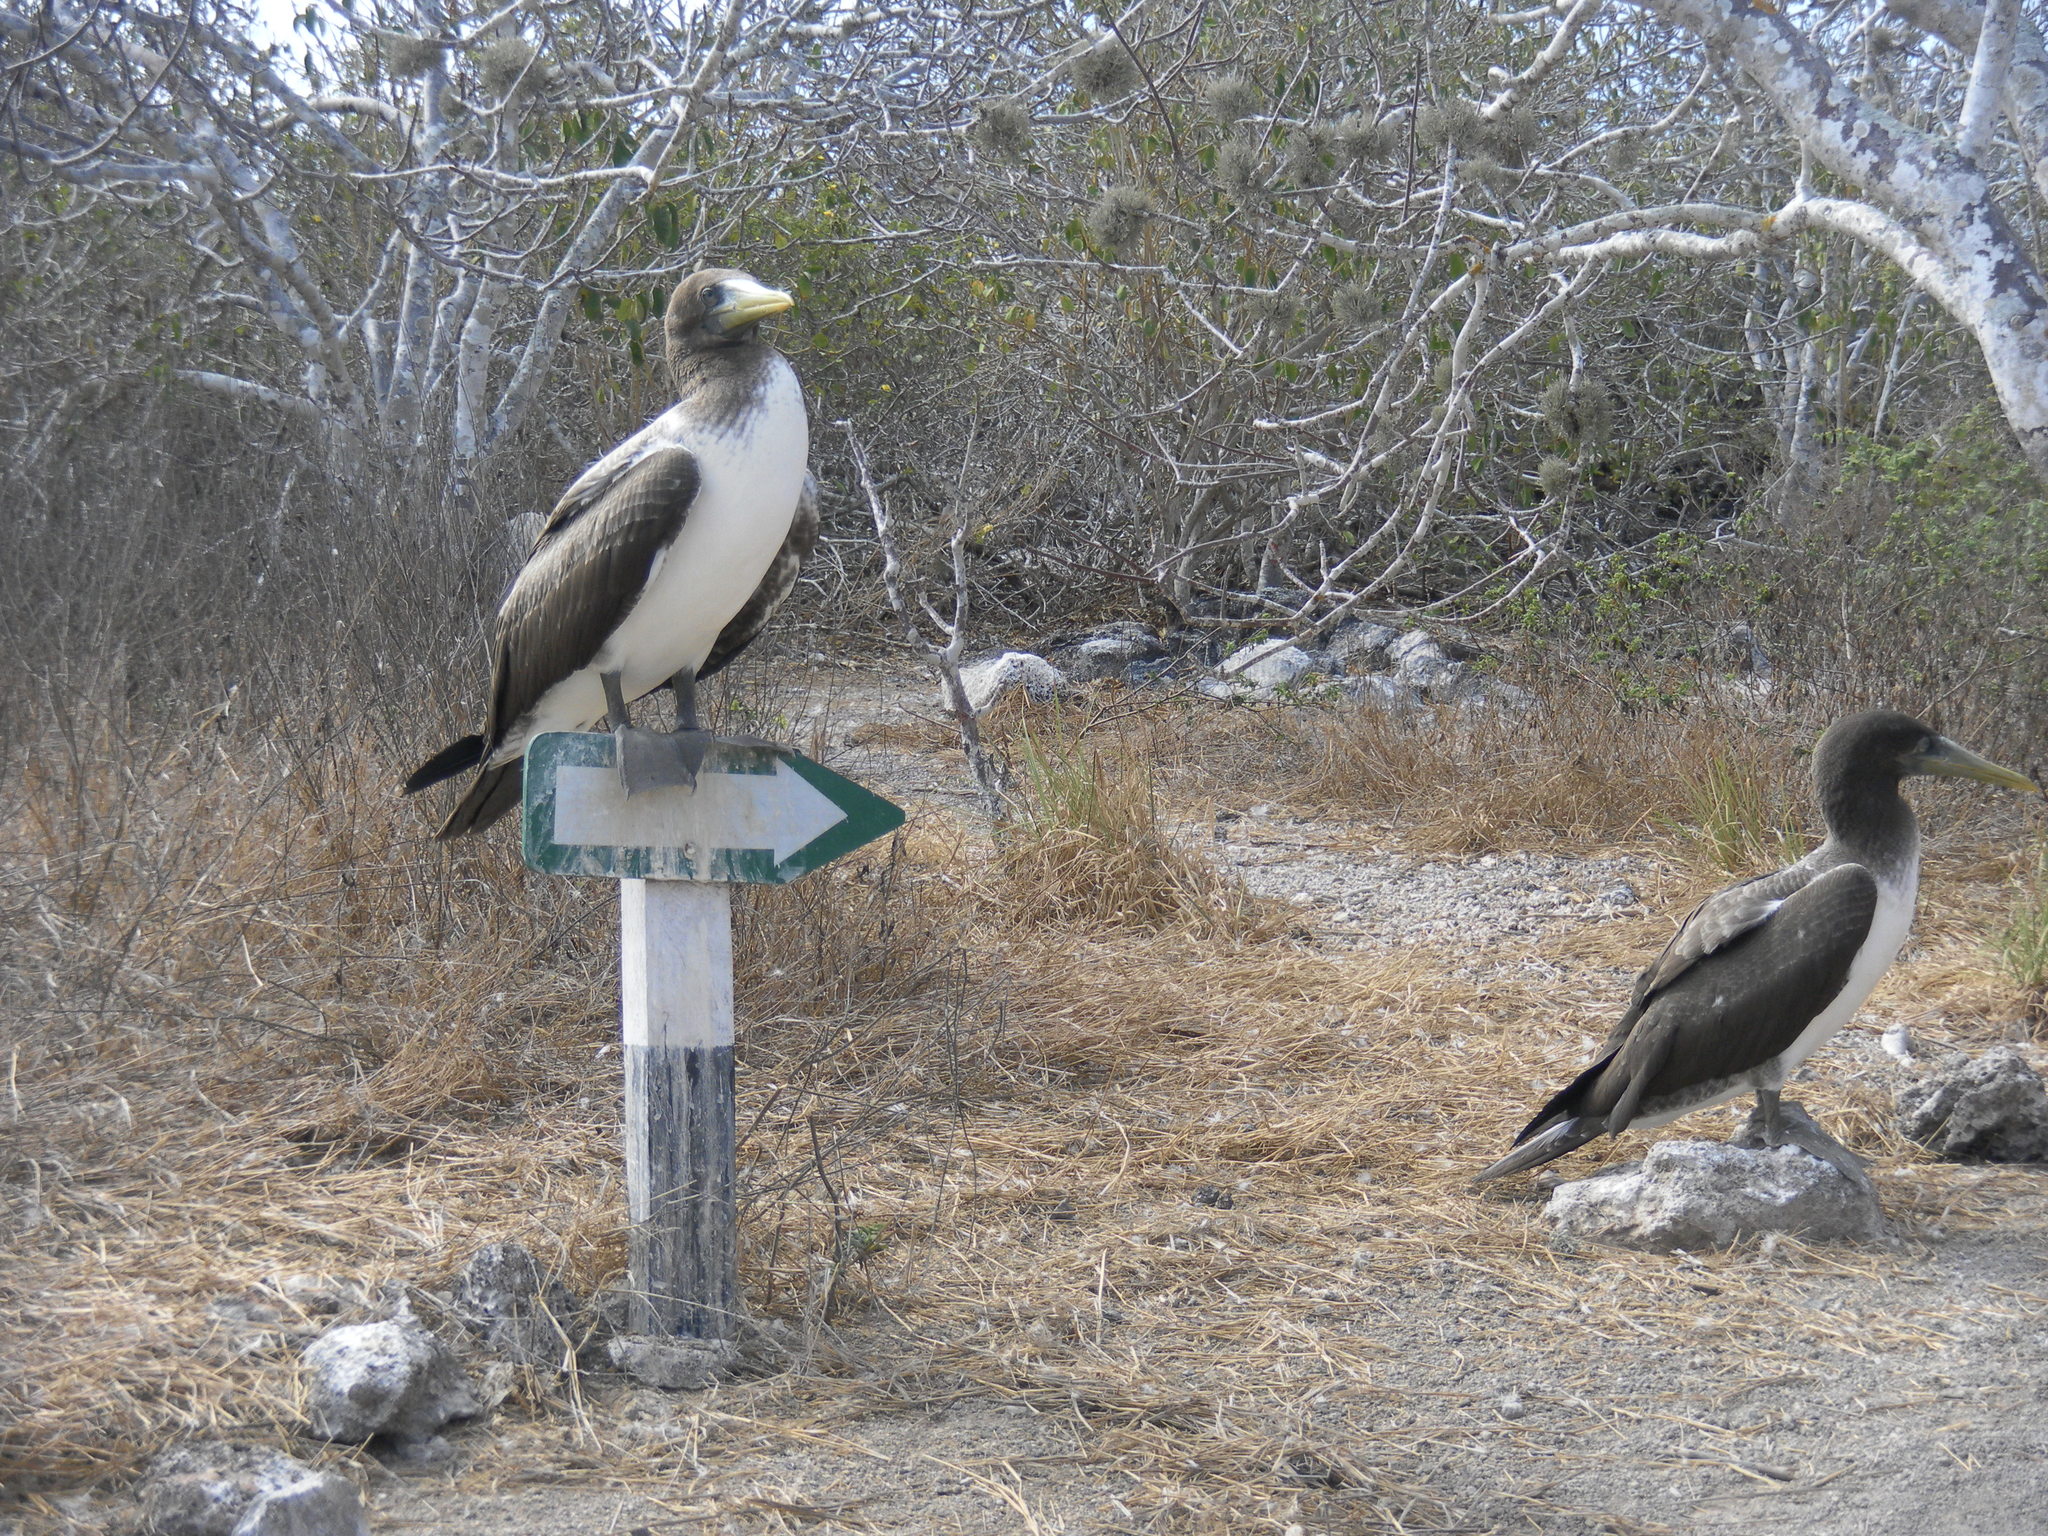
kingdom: Animalia
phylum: Chordata
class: Aves
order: Suliformes
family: Sulidae
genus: Sula
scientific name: Sula granti
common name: Nazca booby
